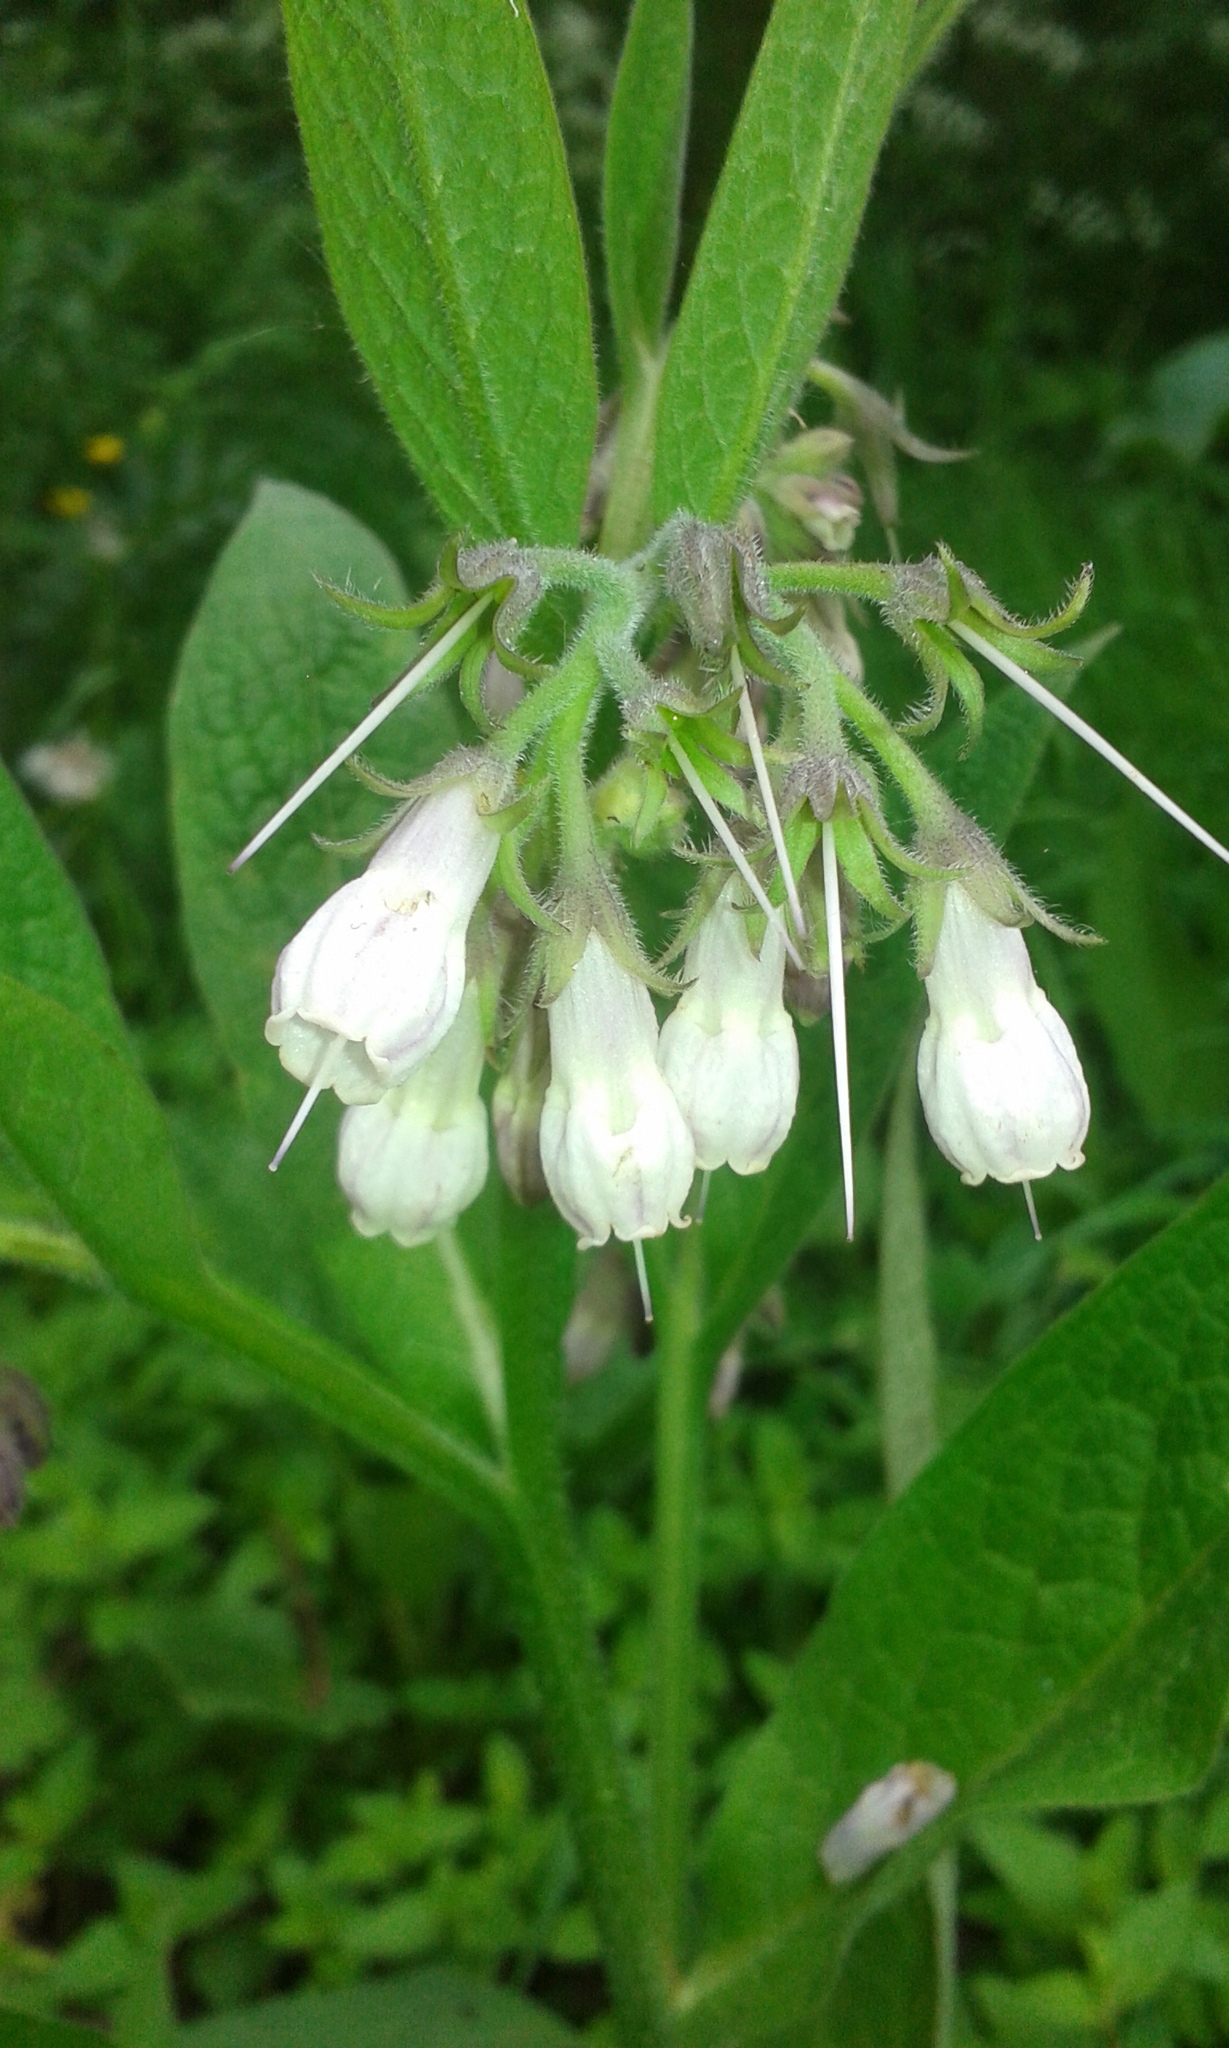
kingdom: Plantae
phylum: Tracheophyta
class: Magnoliopsida
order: Boraginales
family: Boraginaceae
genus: Symphytum
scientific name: Symphytum officinale
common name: Common comfrey
